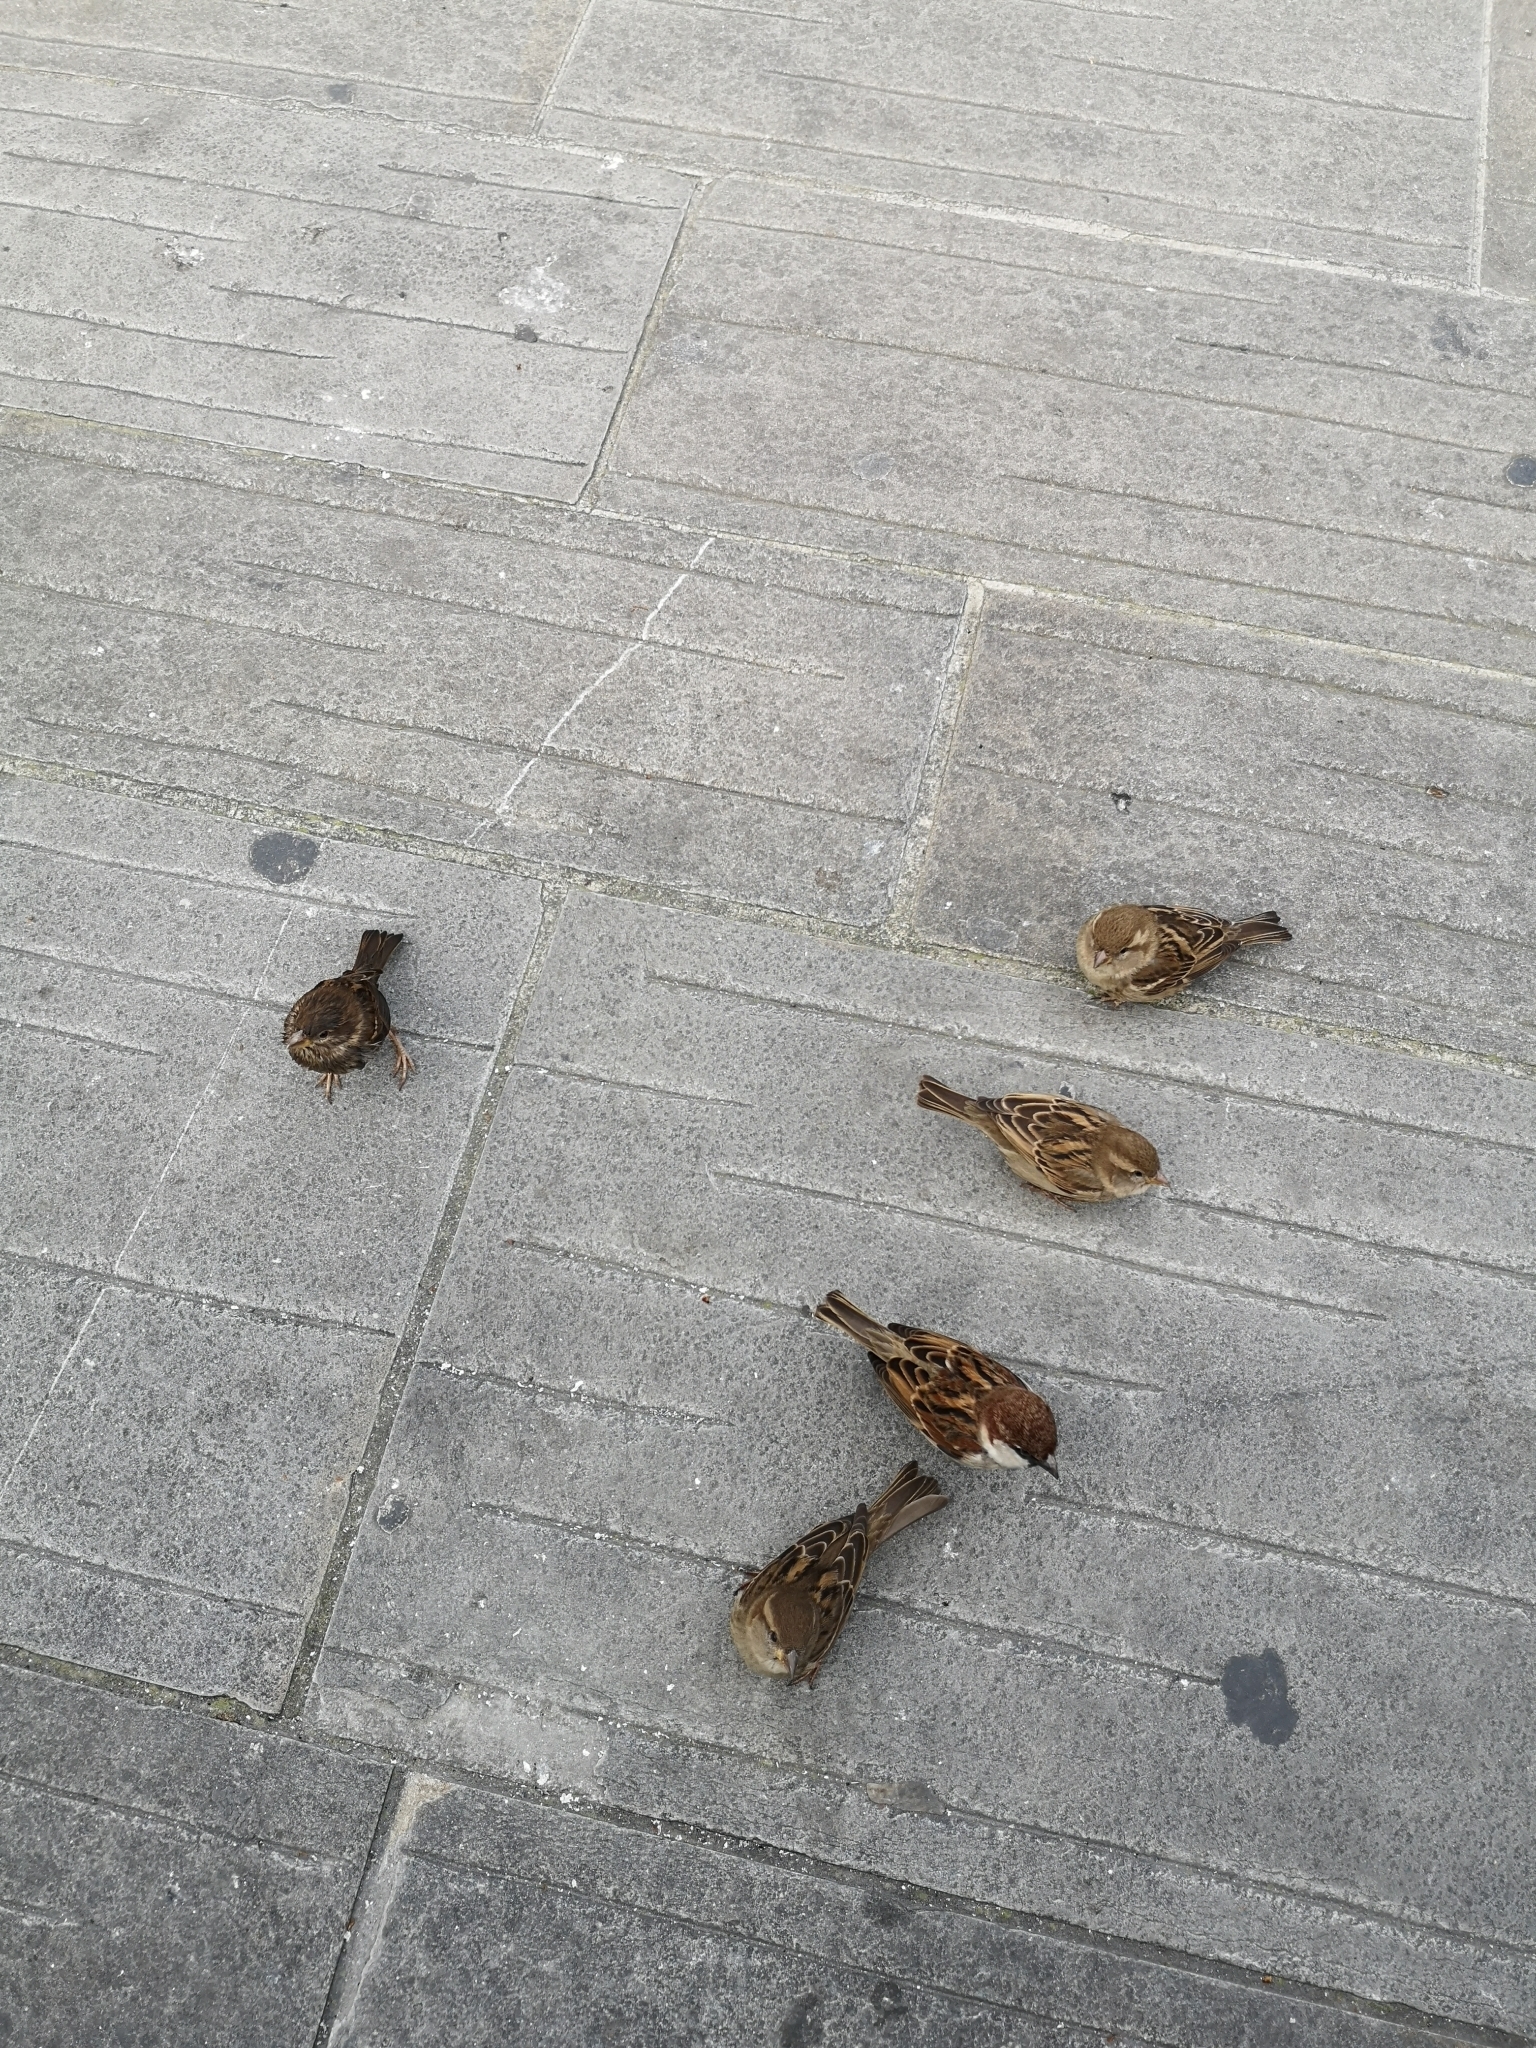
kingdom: Animalia
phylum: Chordata
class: Aves
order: Passeriformes
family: Passeridae
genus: Passer
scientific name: Passer italiae
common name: Italian sparrow
